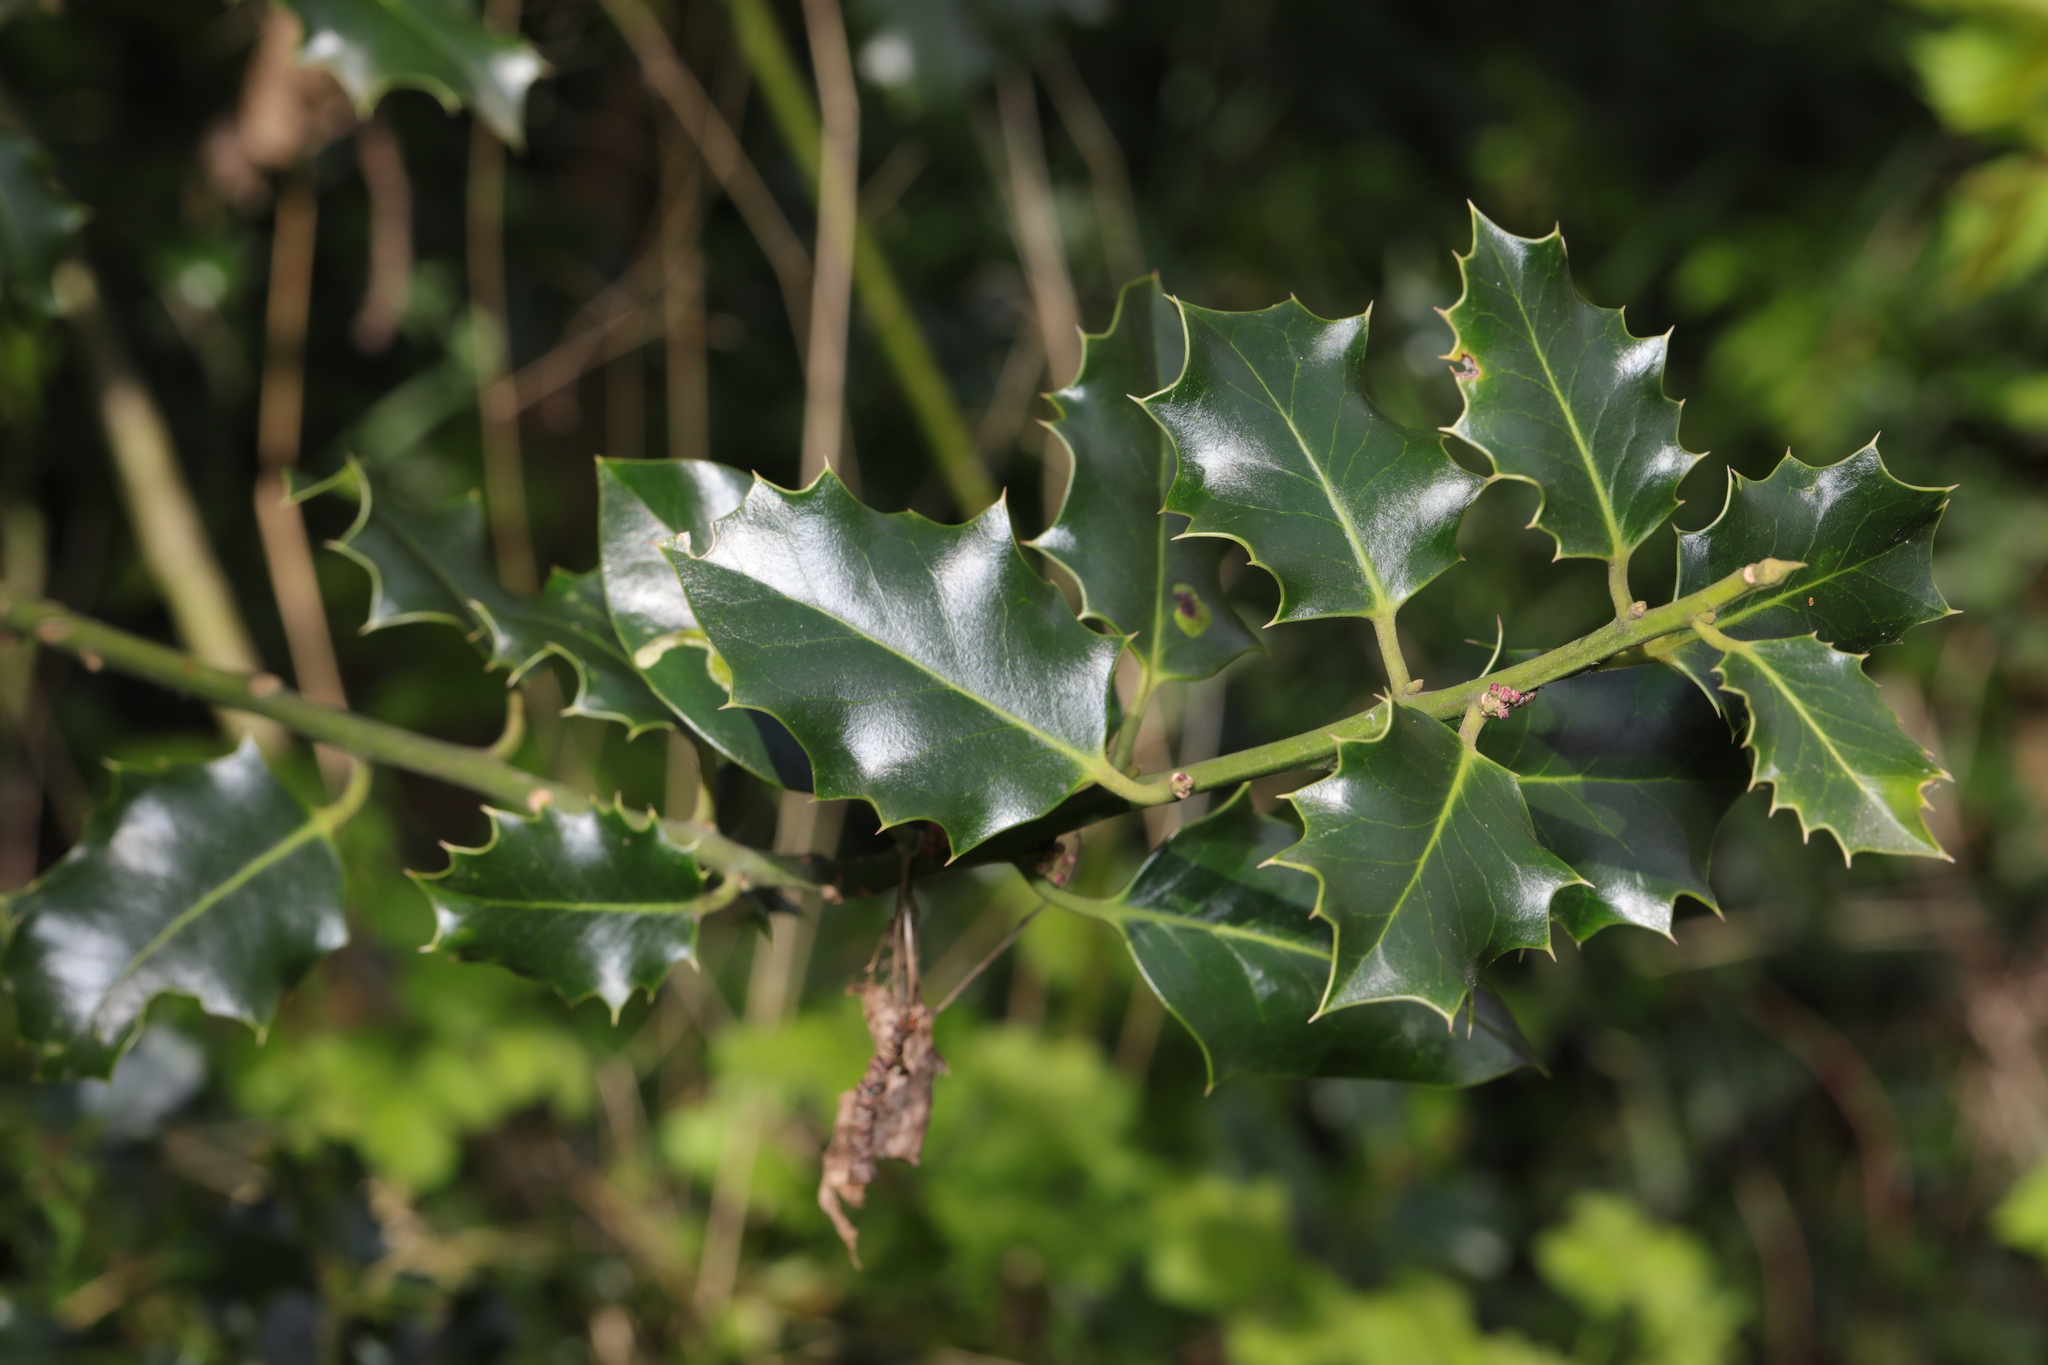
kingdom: Plantae
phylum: Tracheophyta
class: Magnoliopsida
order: Aquifoliales
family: Aquifoliaceae
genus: Ilex
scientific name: Ilex aquifolium
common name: English holly
